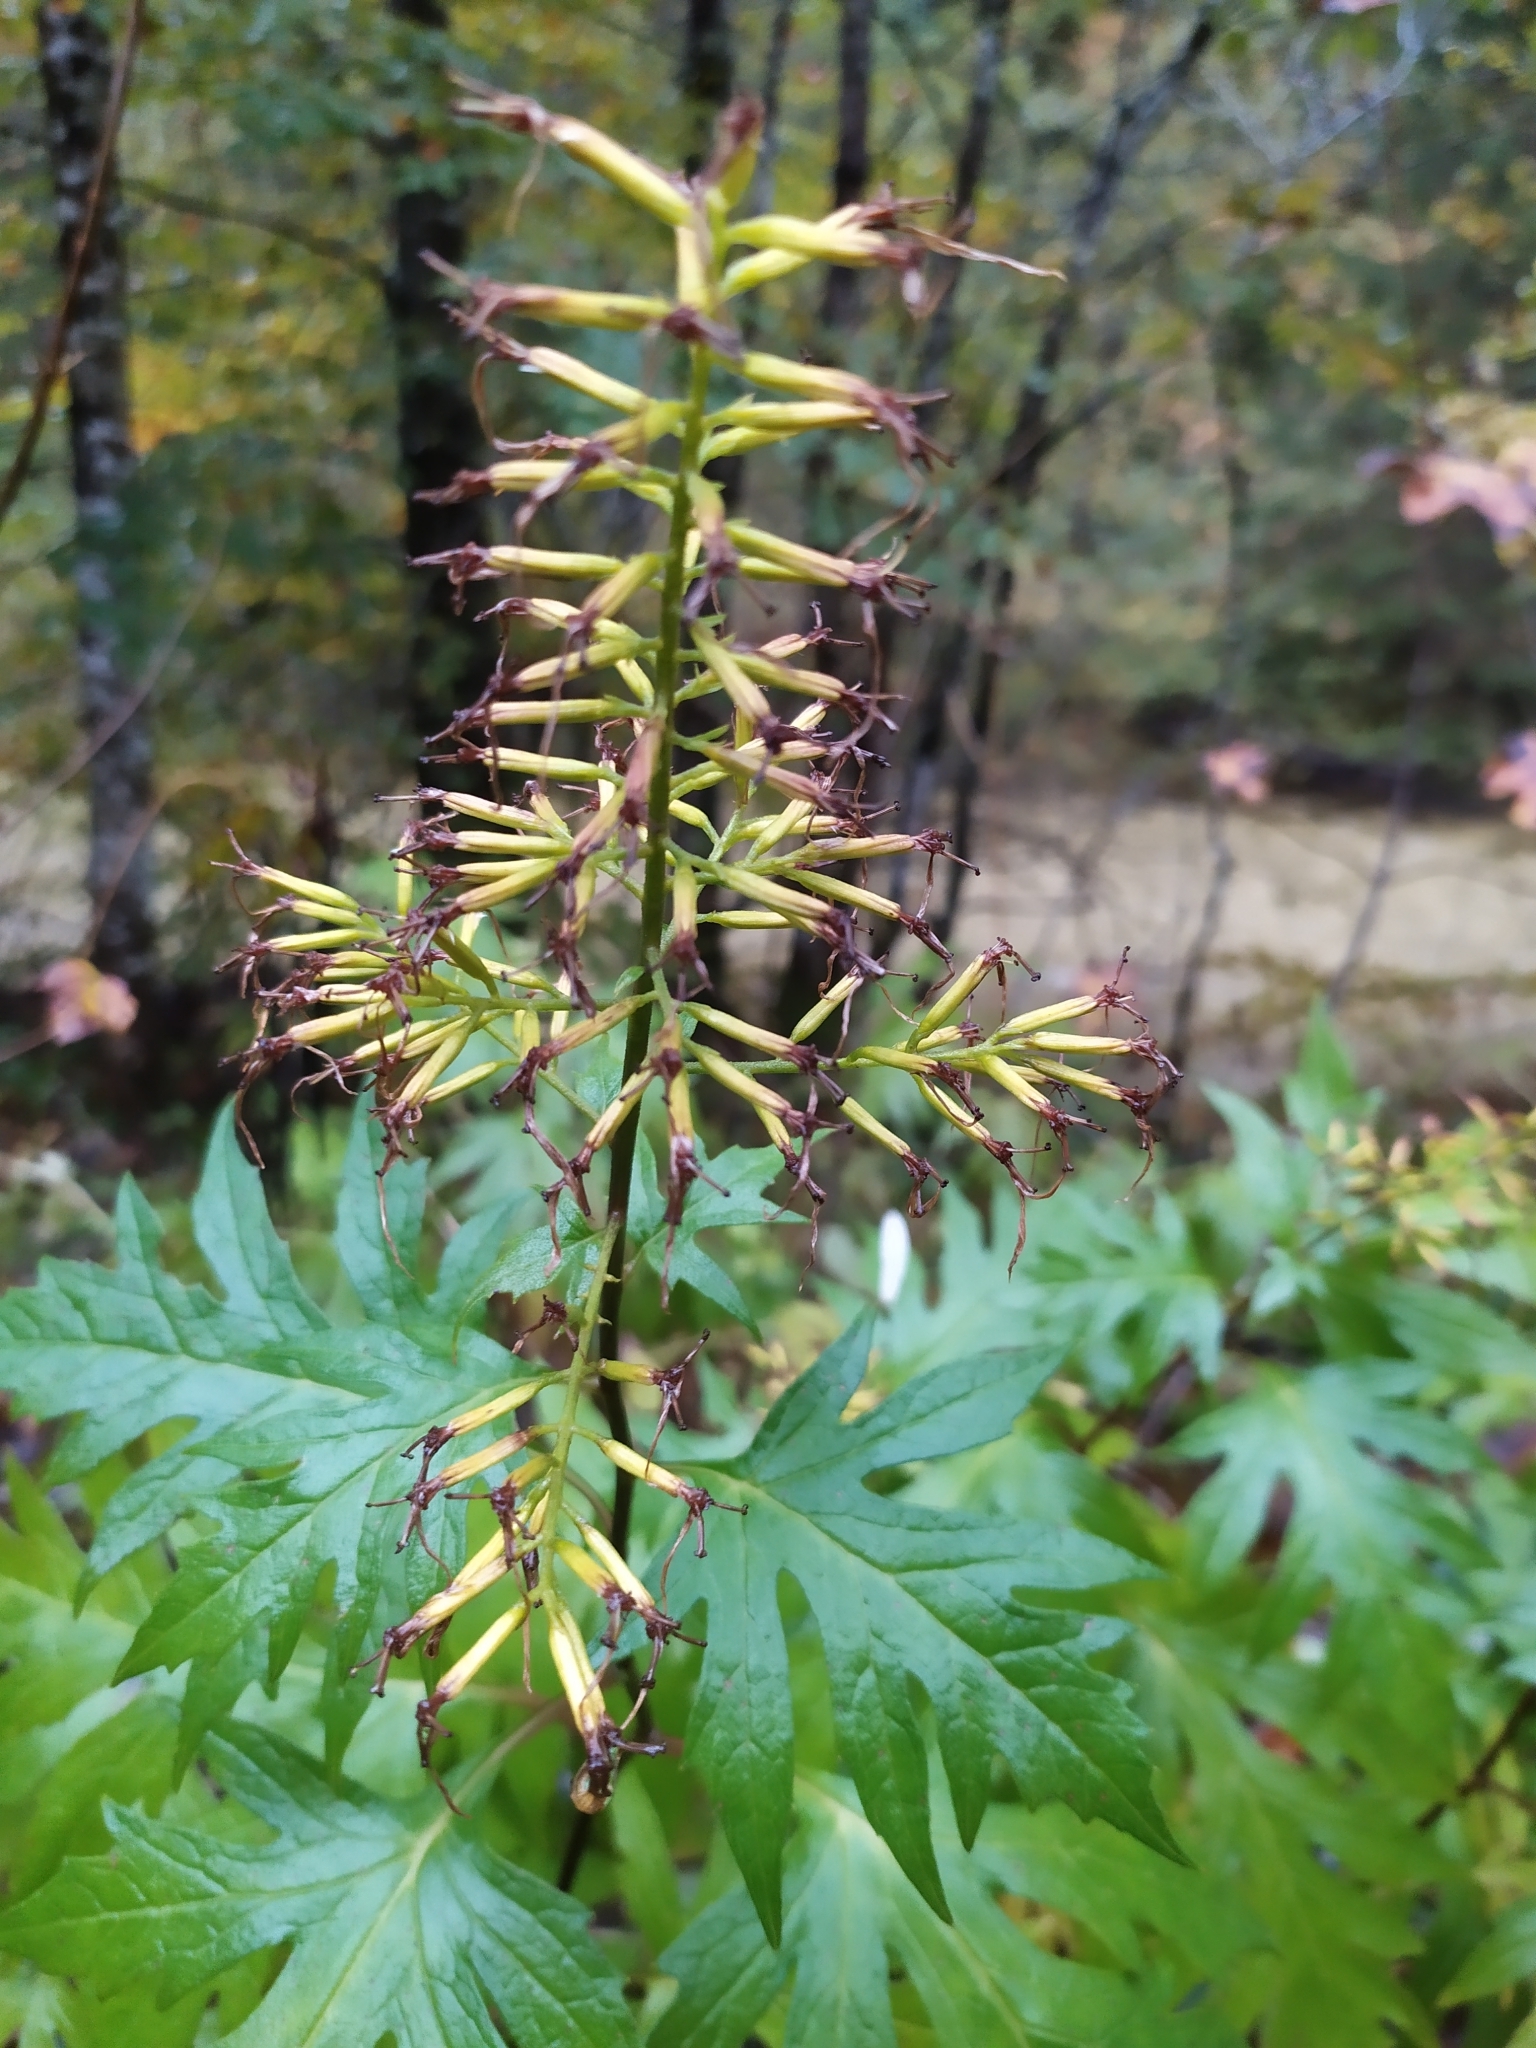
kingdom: Plantae
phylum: Tracheophyta
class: Magnoliopsida
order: Asterales
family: Asteraceae
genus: Sinacalia
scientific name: Sinacalia tangutica
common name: Chinese ragwort
